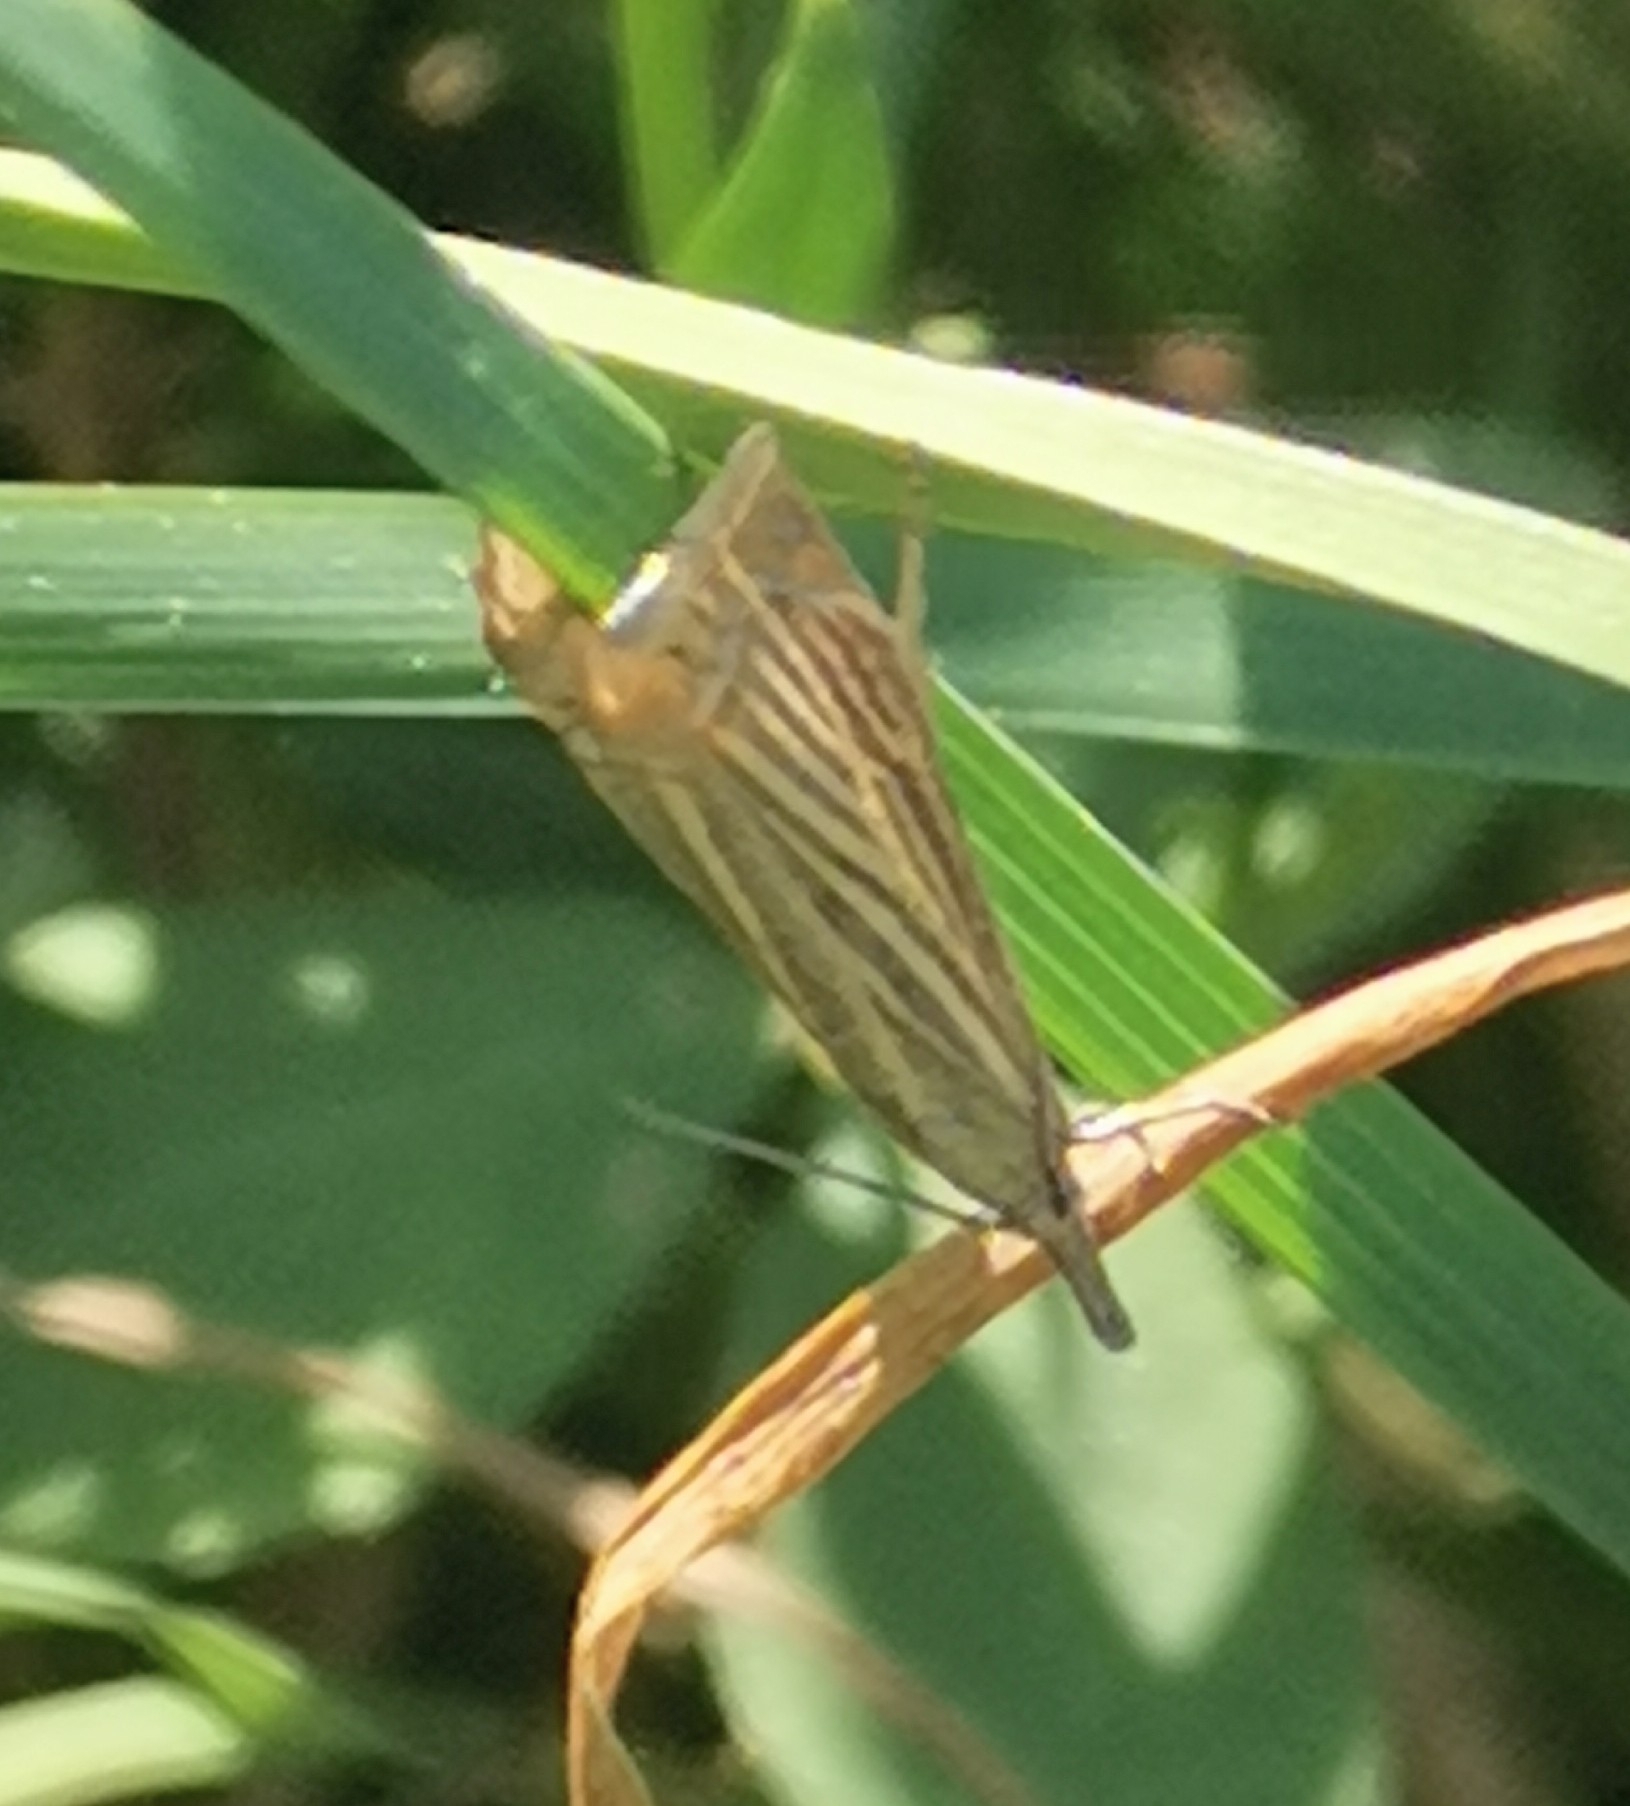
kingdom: Animalia
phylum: Arthropoda
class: Insecta
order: Lepidoptera
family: Crambidae
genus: Chrysoteuchia
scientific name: Chrysoteuchia culmella
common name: Garden grass-veneer
